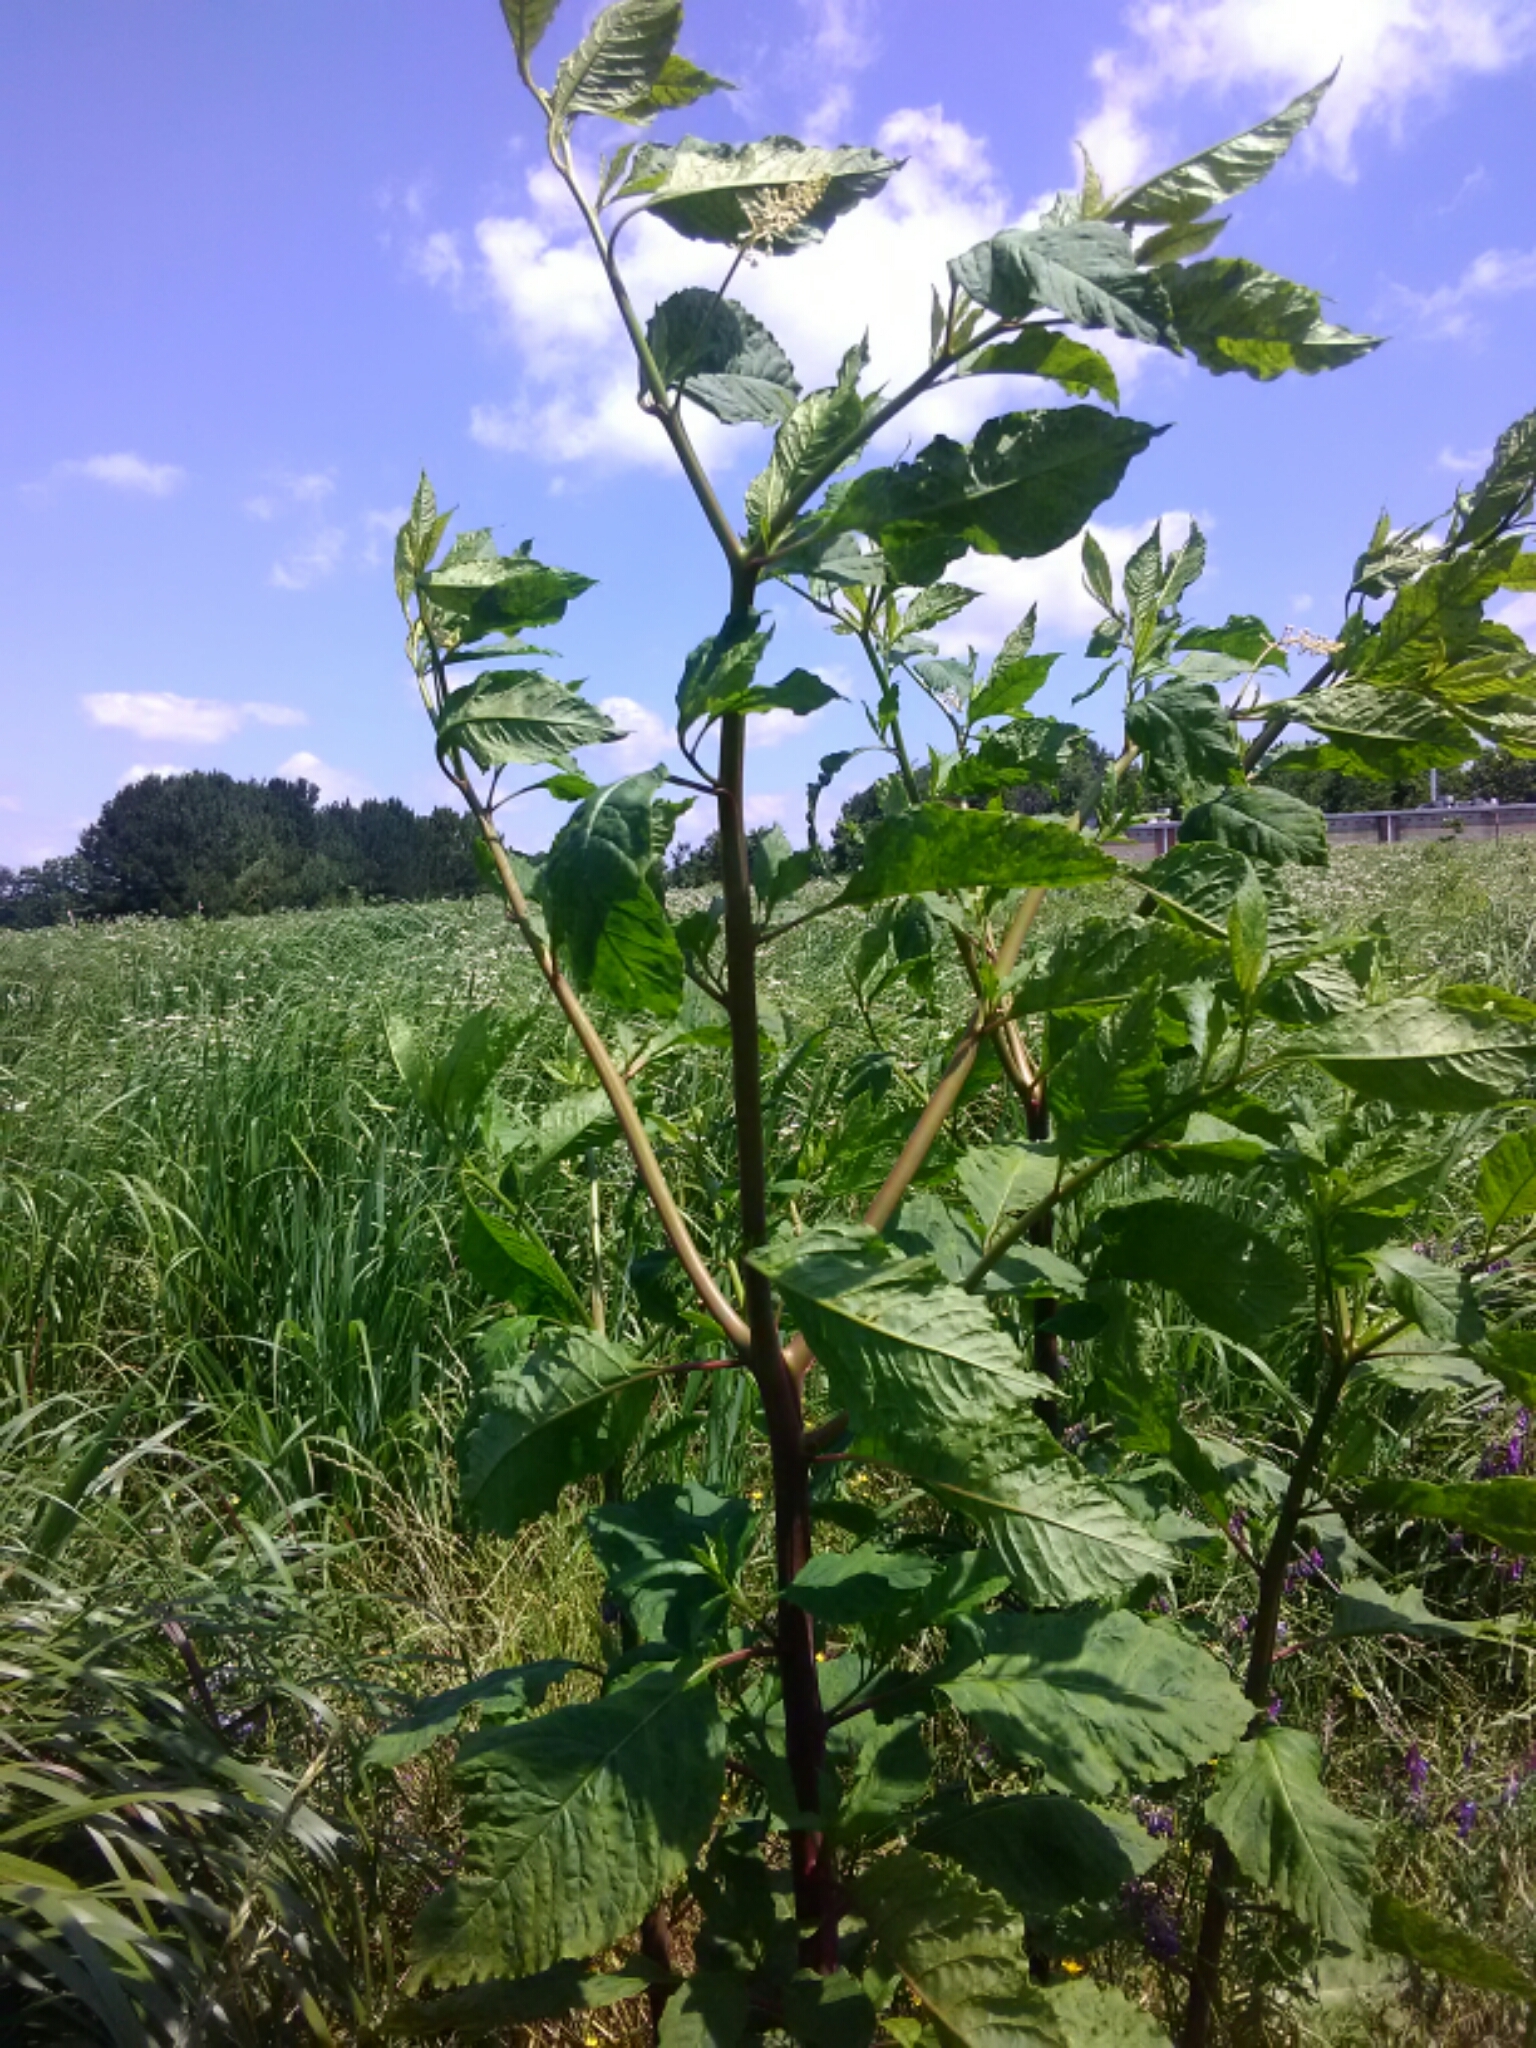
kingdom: Plantae
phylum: Tracheophyta
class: Magnoliopsida
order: Caryophyllales
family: Phytolaccaceae
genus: Phytolacca
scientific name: Phytolacca americana
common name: American pokeweed
